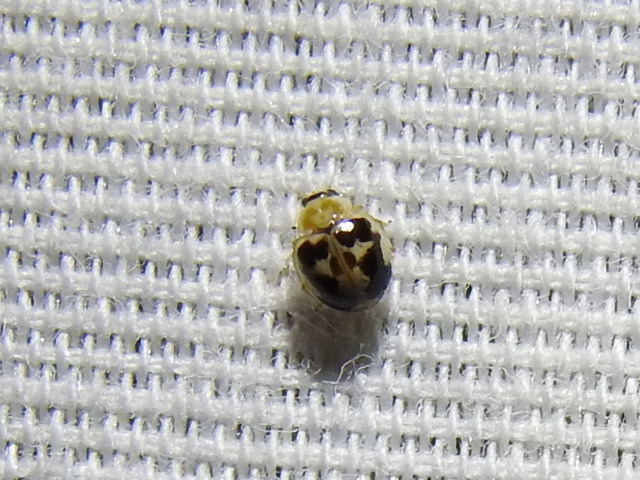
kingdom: Animalia
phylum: Arthropoda
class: Insecta
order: Coleoptera
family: Coccinellidae
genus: Psyllobora
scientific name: Psyllobora renifer
